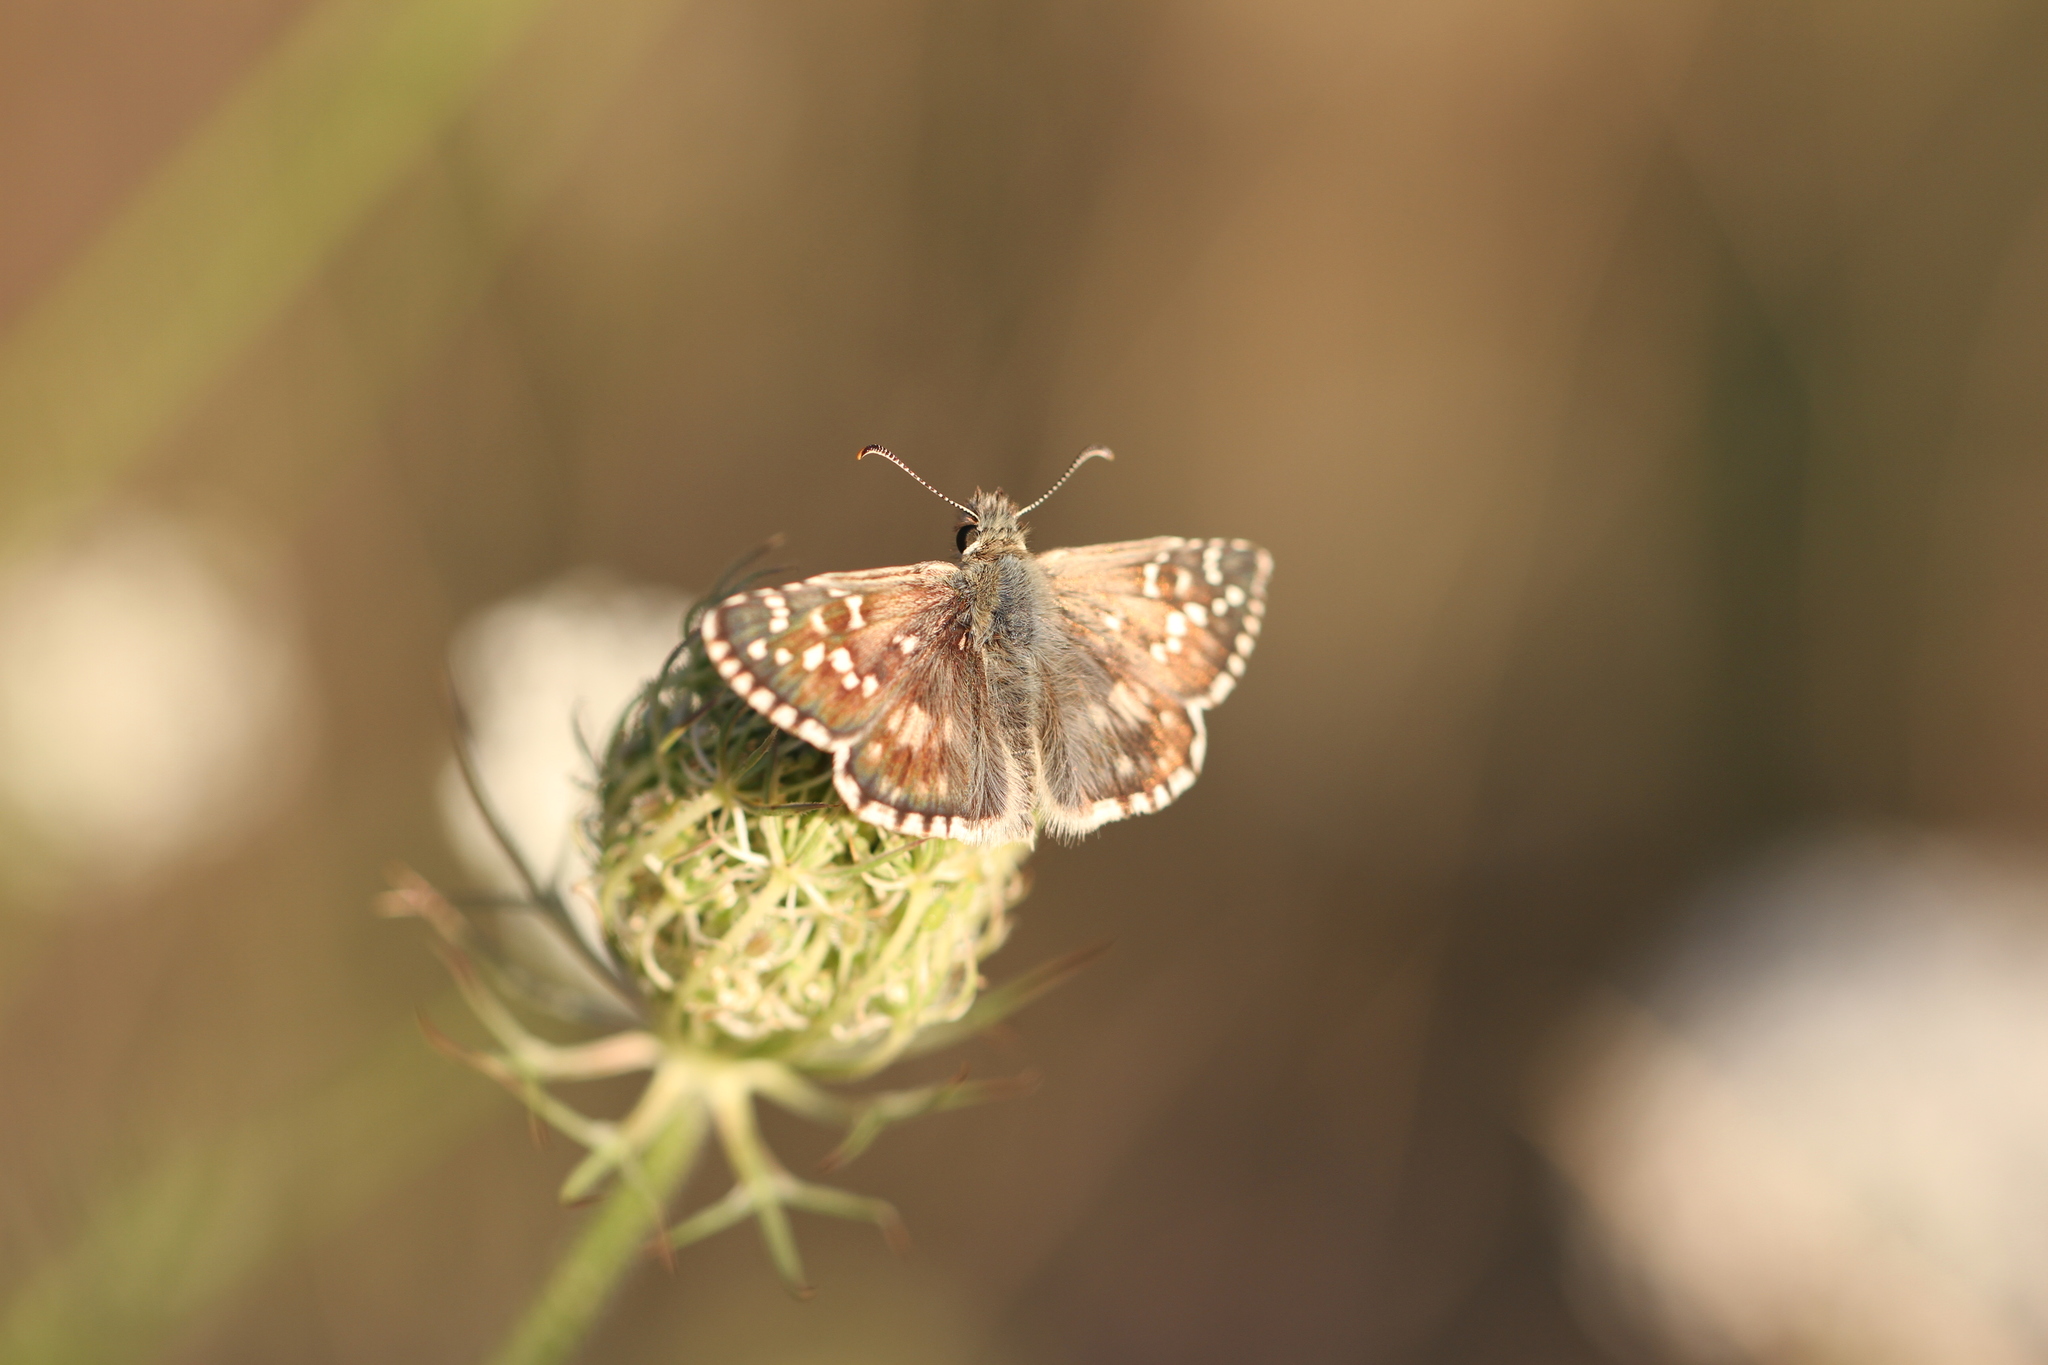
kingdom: Animalia
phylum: Arthropoda
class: Insecta
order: Lepidoptera
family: Hesperiidae
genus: Pyrgus
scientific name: Pyrgus armoricanus
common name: Oberthür's grizzled skipper
